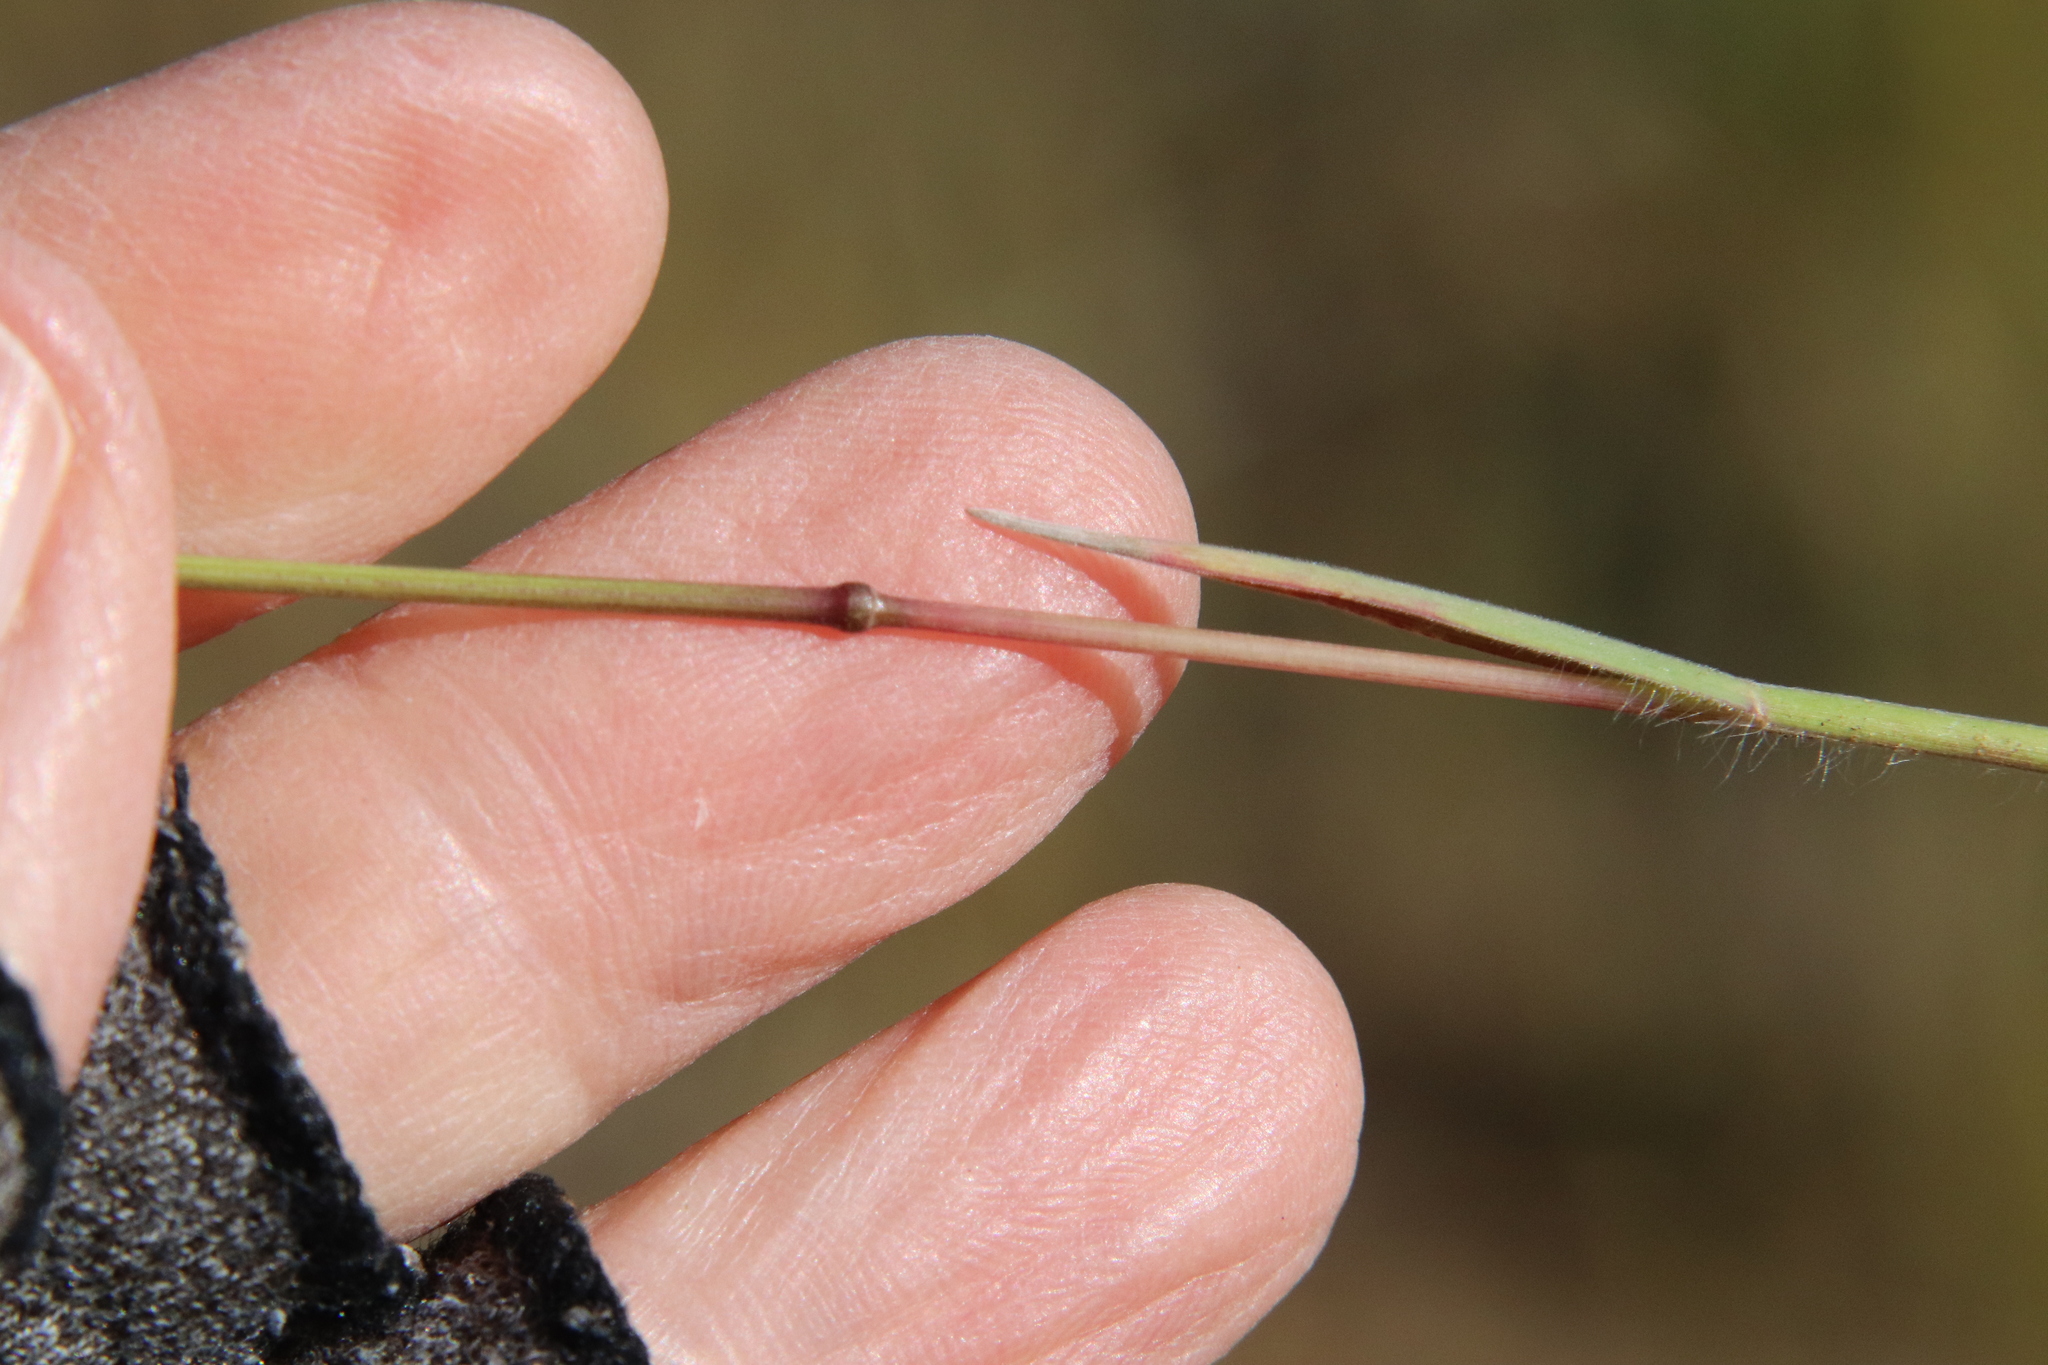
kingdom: Plantae
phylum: Tracheophyta
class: Liliopsida
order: Poales
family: Poaceae
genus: Bromus
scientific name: Bromus tectorum
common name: Cheatgrass
